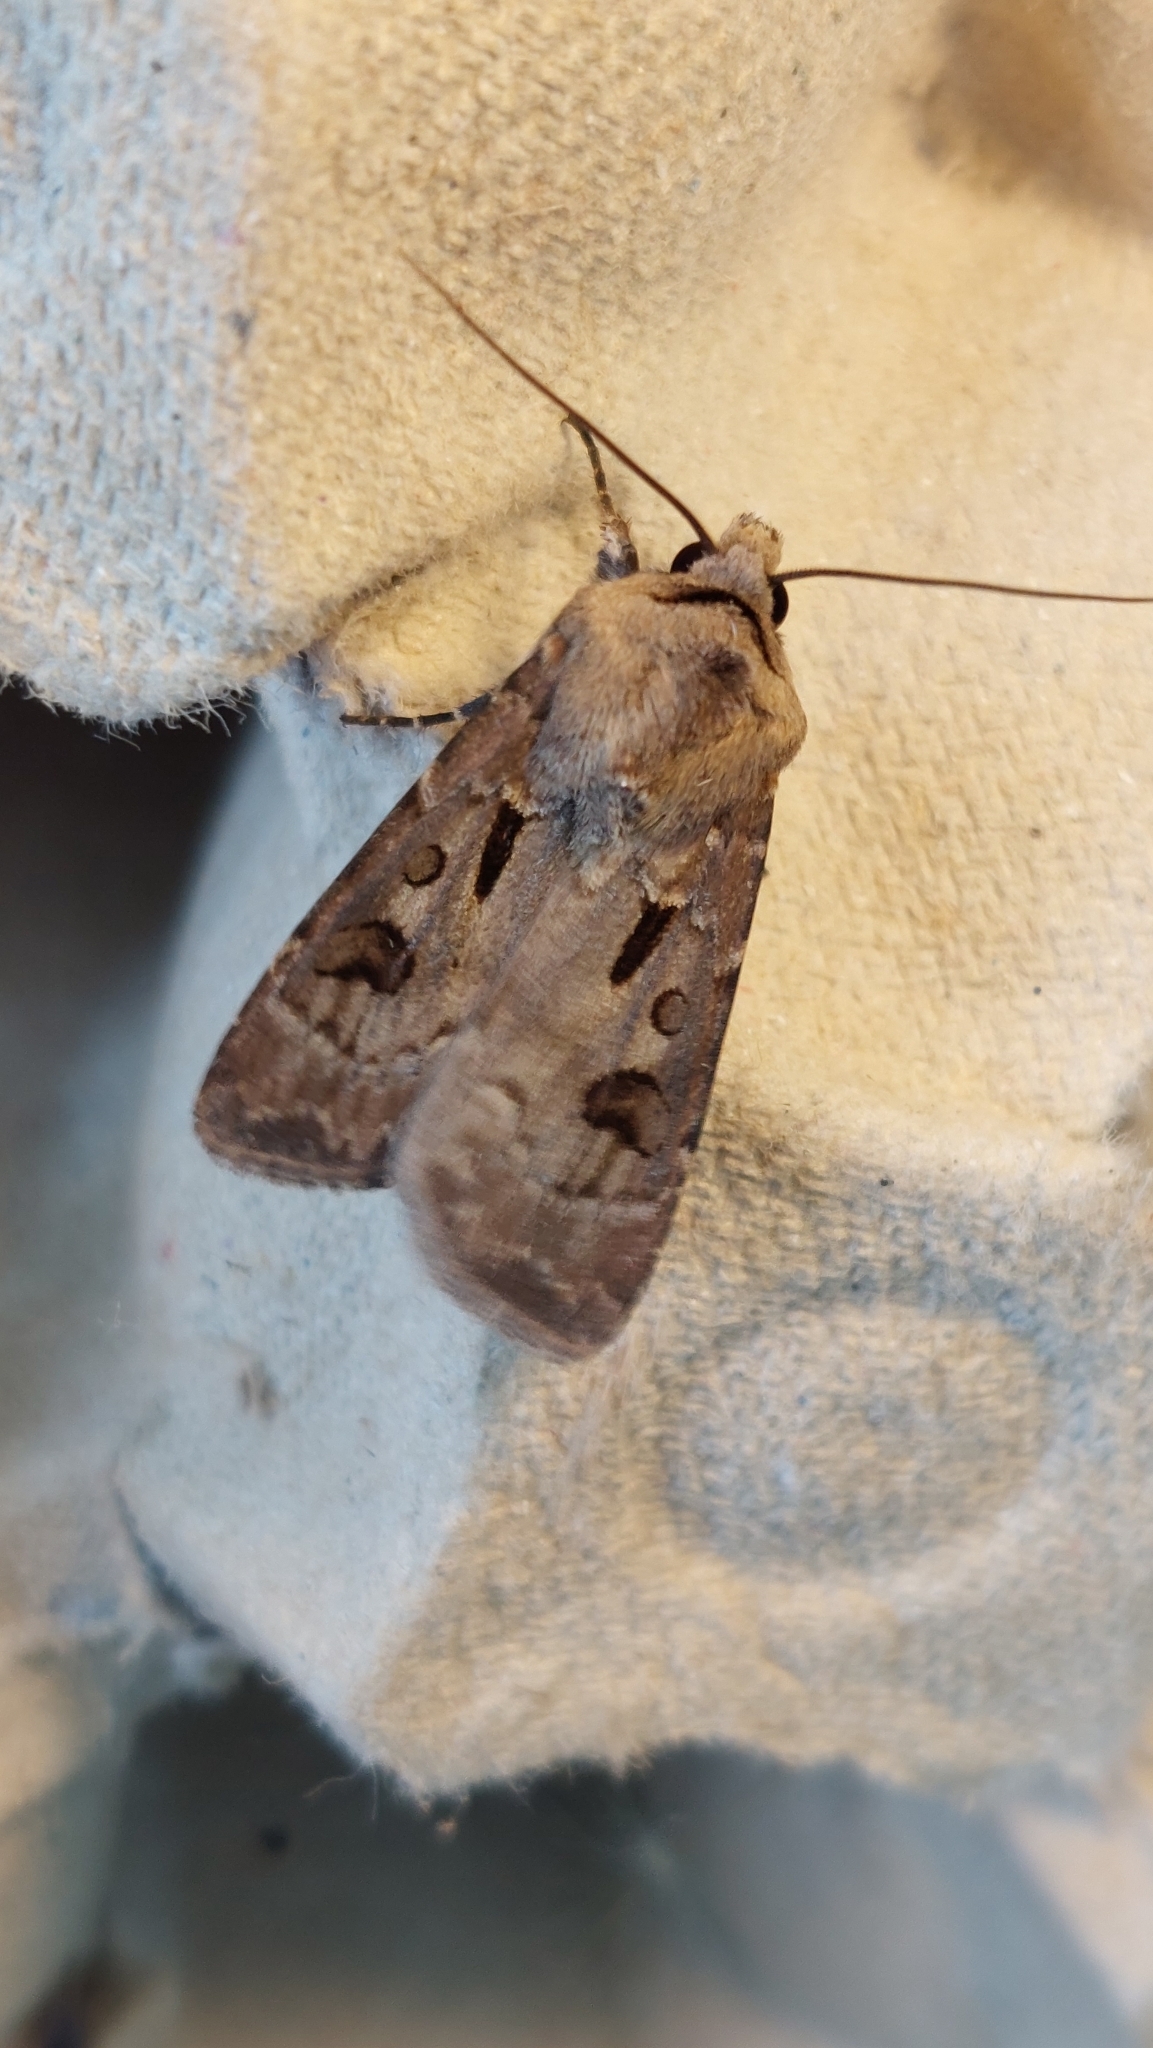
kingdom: Animalia
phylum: Arthropoda
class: Insecta
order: Lepidoptera
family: Noctuidae
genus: Agrotis
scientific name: Agrotis exclamationis
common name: Heart and dart
